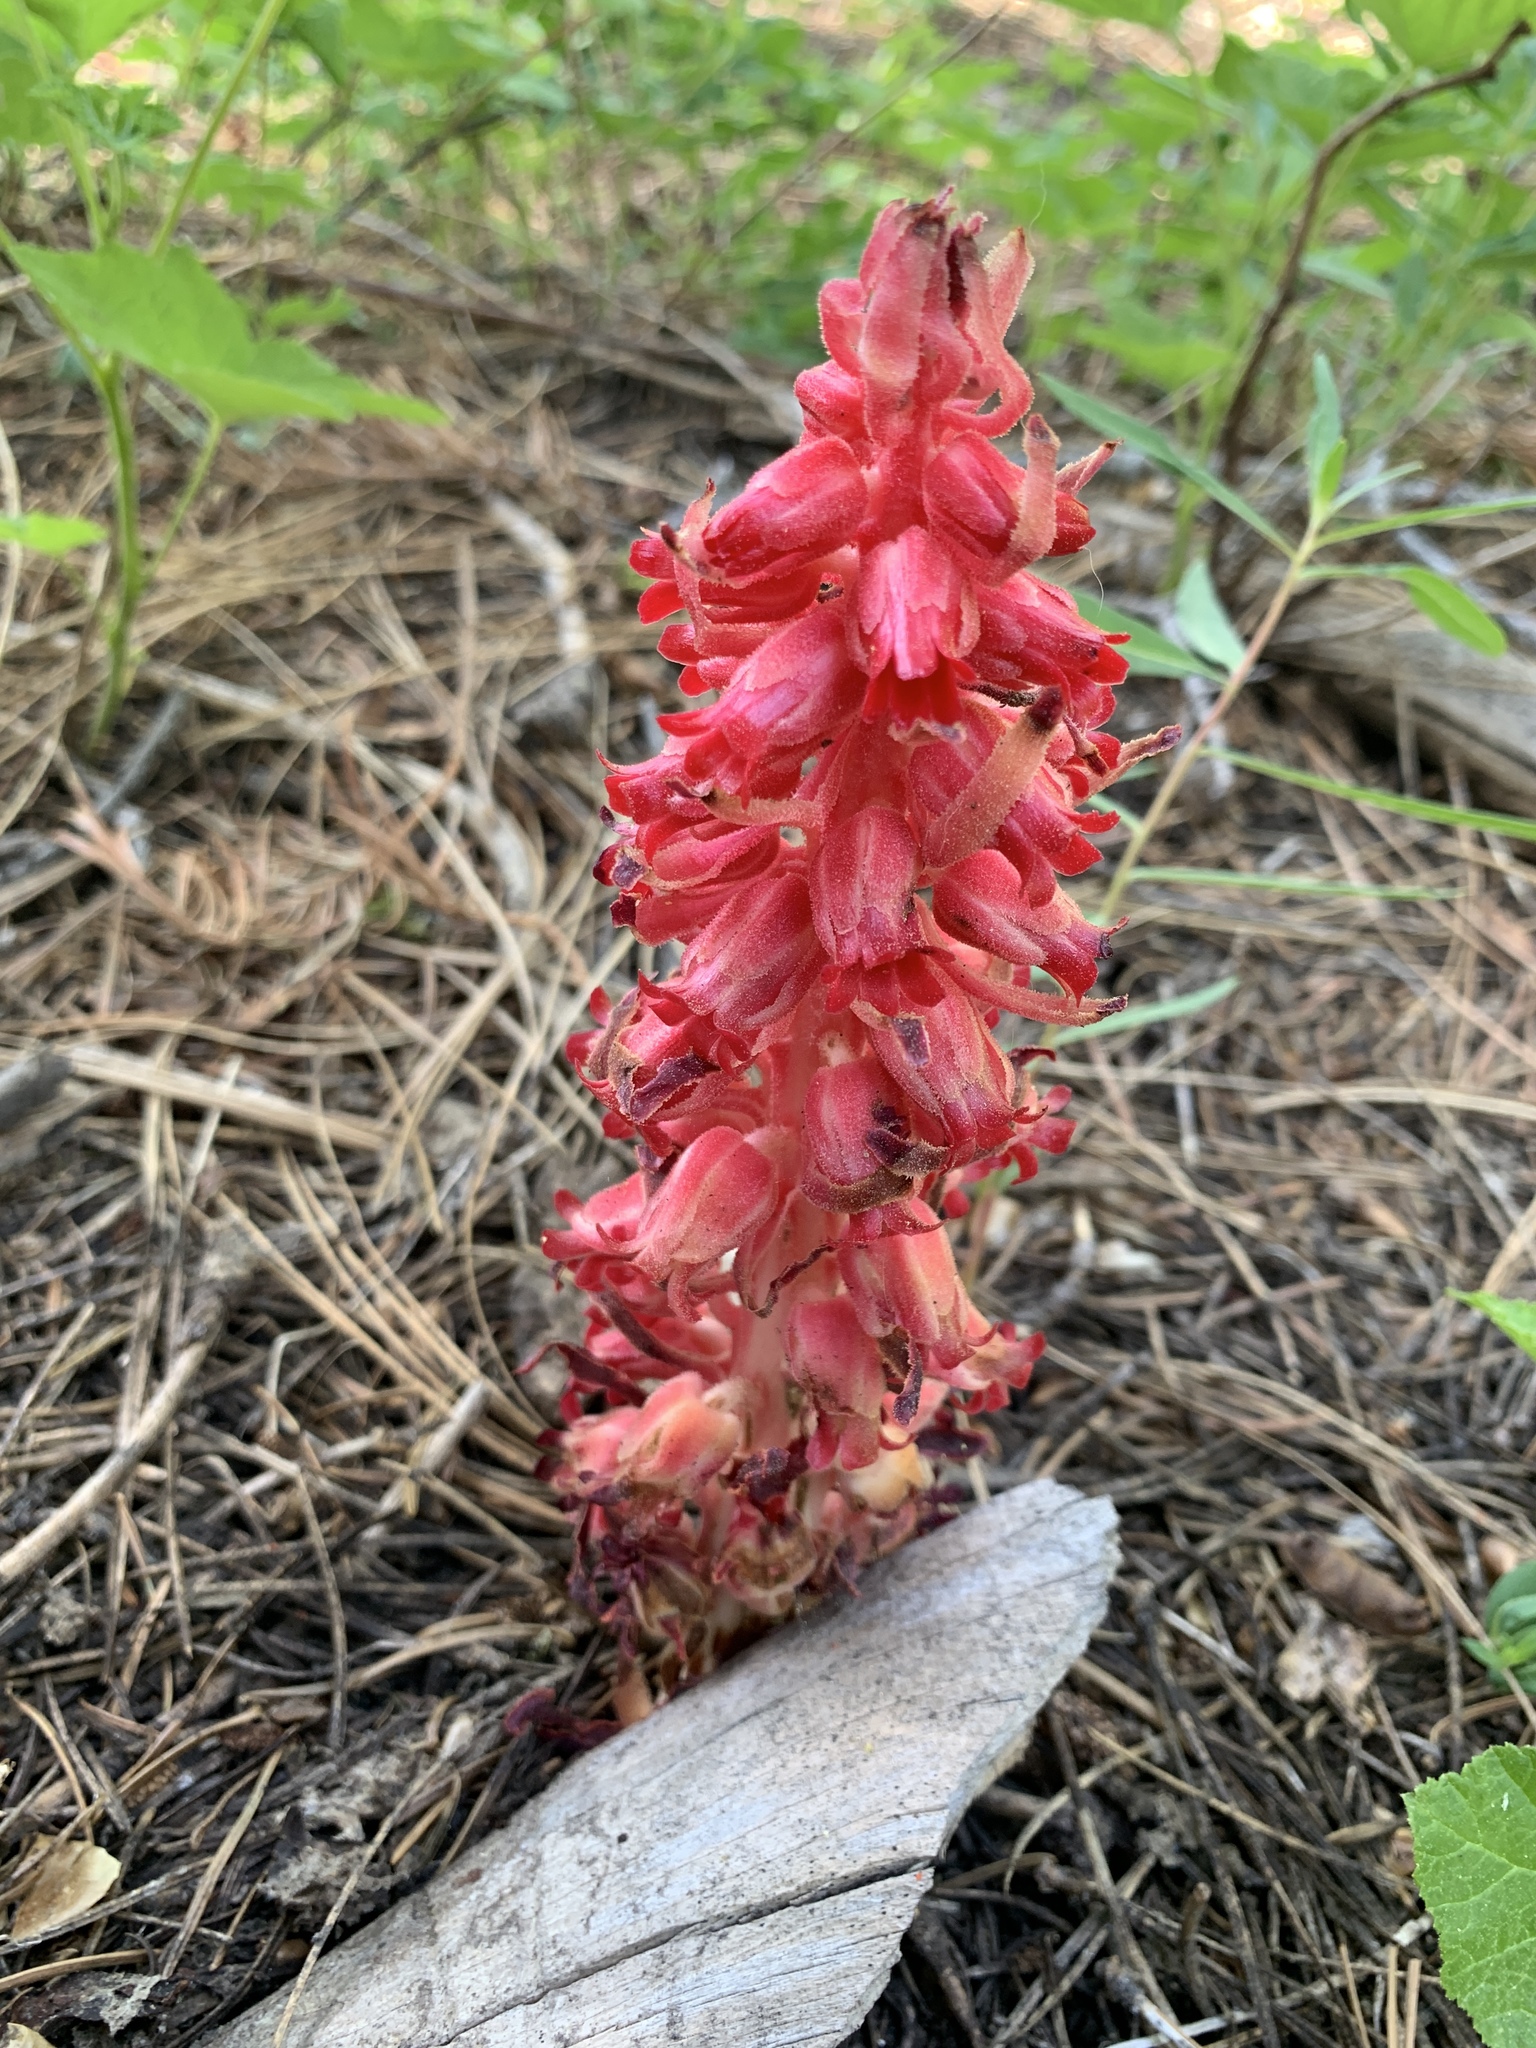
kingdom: Plantae
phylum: Tracheophyta
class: Magnoliopsida
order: Ericales
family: Ericaceae
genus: Sarcodes
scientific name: Sarcodes sanguinea
